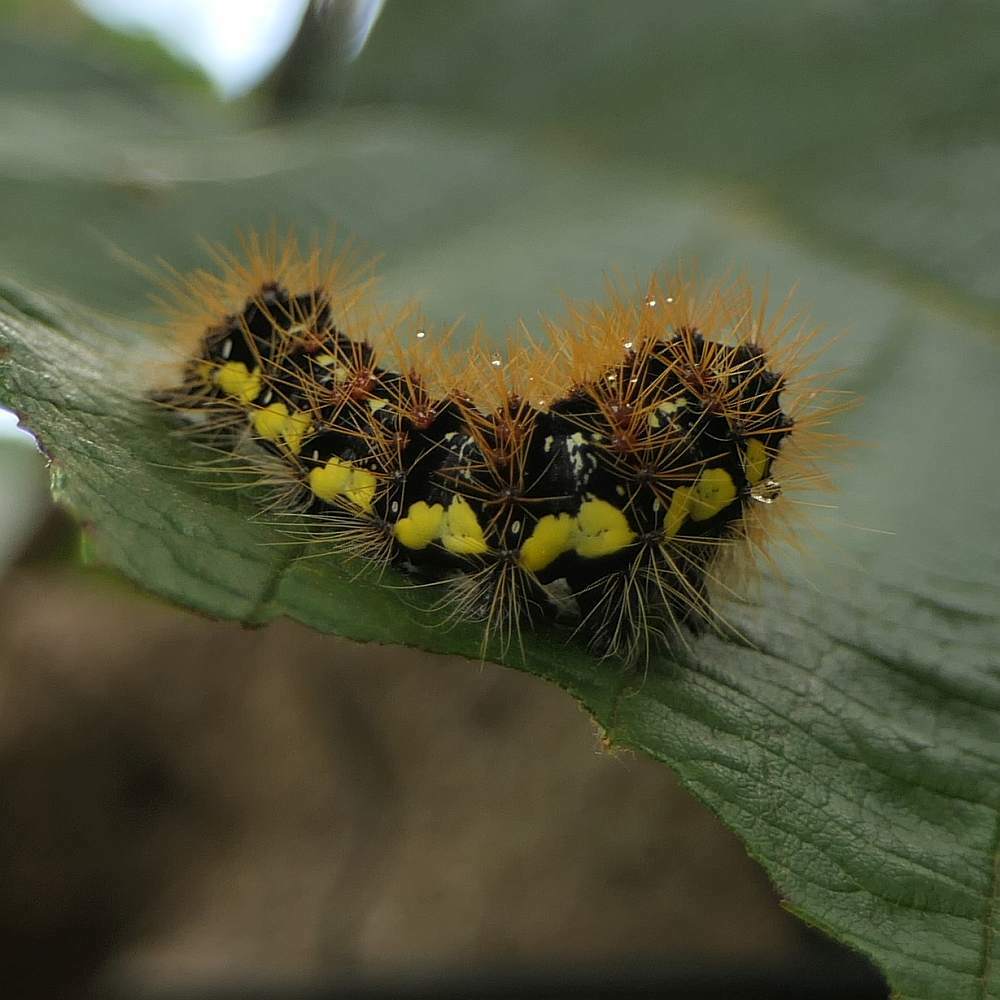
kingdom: Animalia
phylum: Arthropoda
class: Insecta
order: Lepidoptera
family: Noctuidae
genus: Acronicta
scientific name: Acronicta oblinita
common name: Smeared dagger
